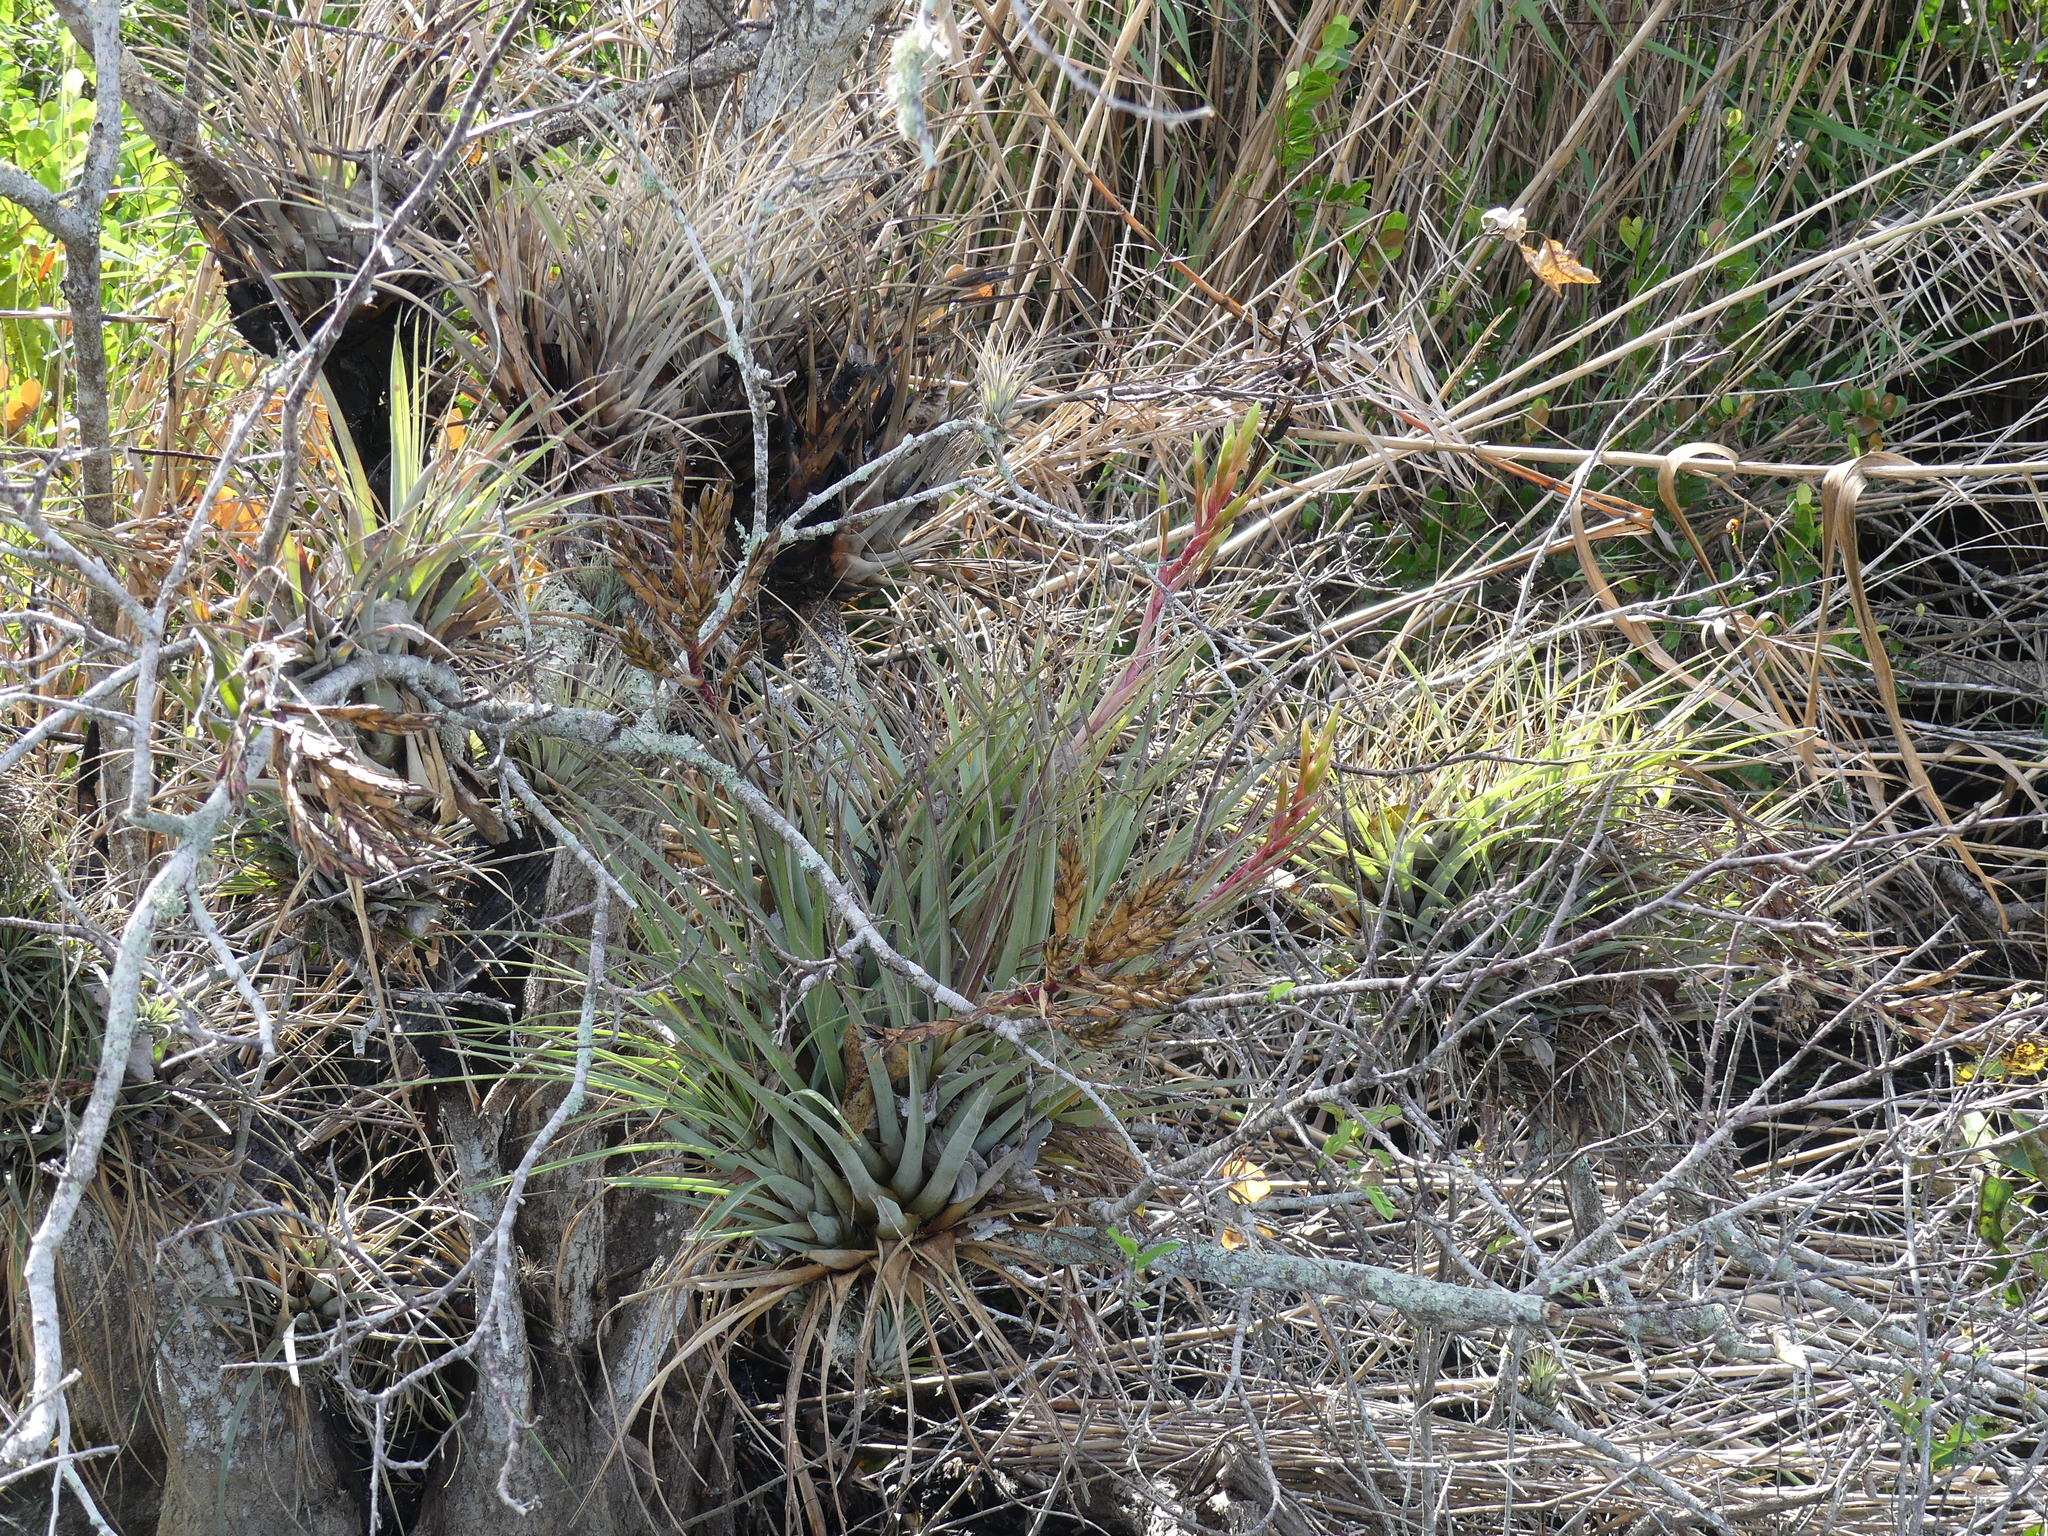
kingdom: Plantae
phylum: Tracheophyta
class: Liliopsida
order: Poales
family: Bromeliaceae
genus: Tillandsia
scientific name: Tillandsia fasciculata
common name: Giant airplant
